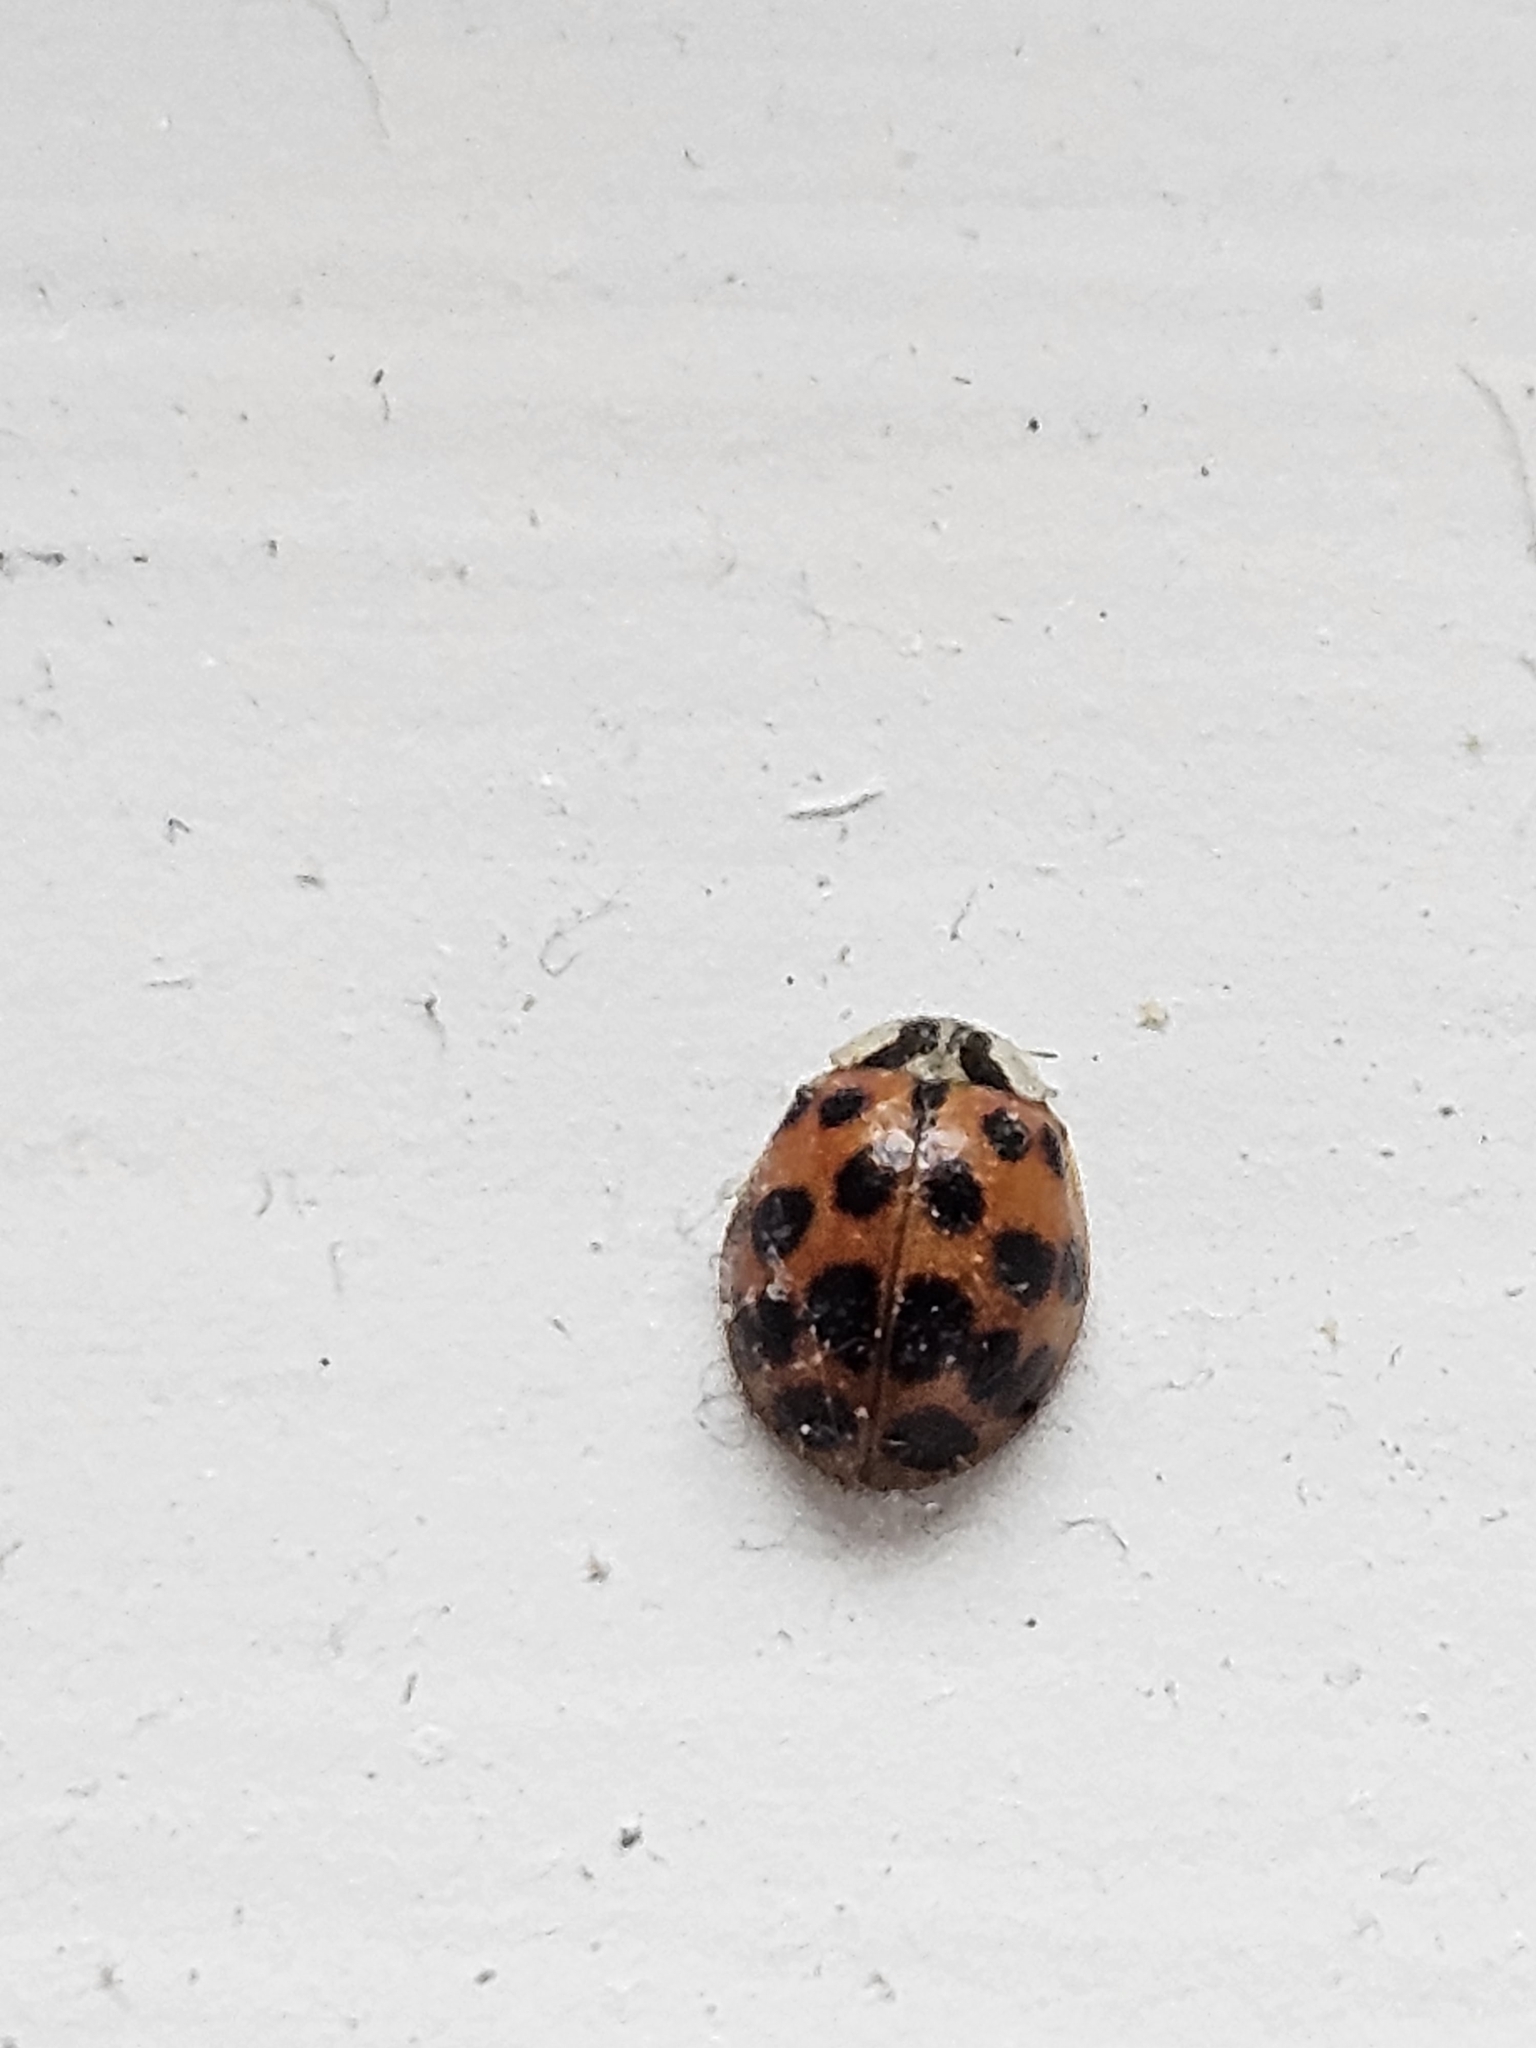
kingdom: Animalia
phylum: Arthropoda
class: Insecta
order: Coleoptera
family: Coccinellidae
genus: Harmonia
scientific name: Harmonia axyridis
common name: Harlequin ladybird
